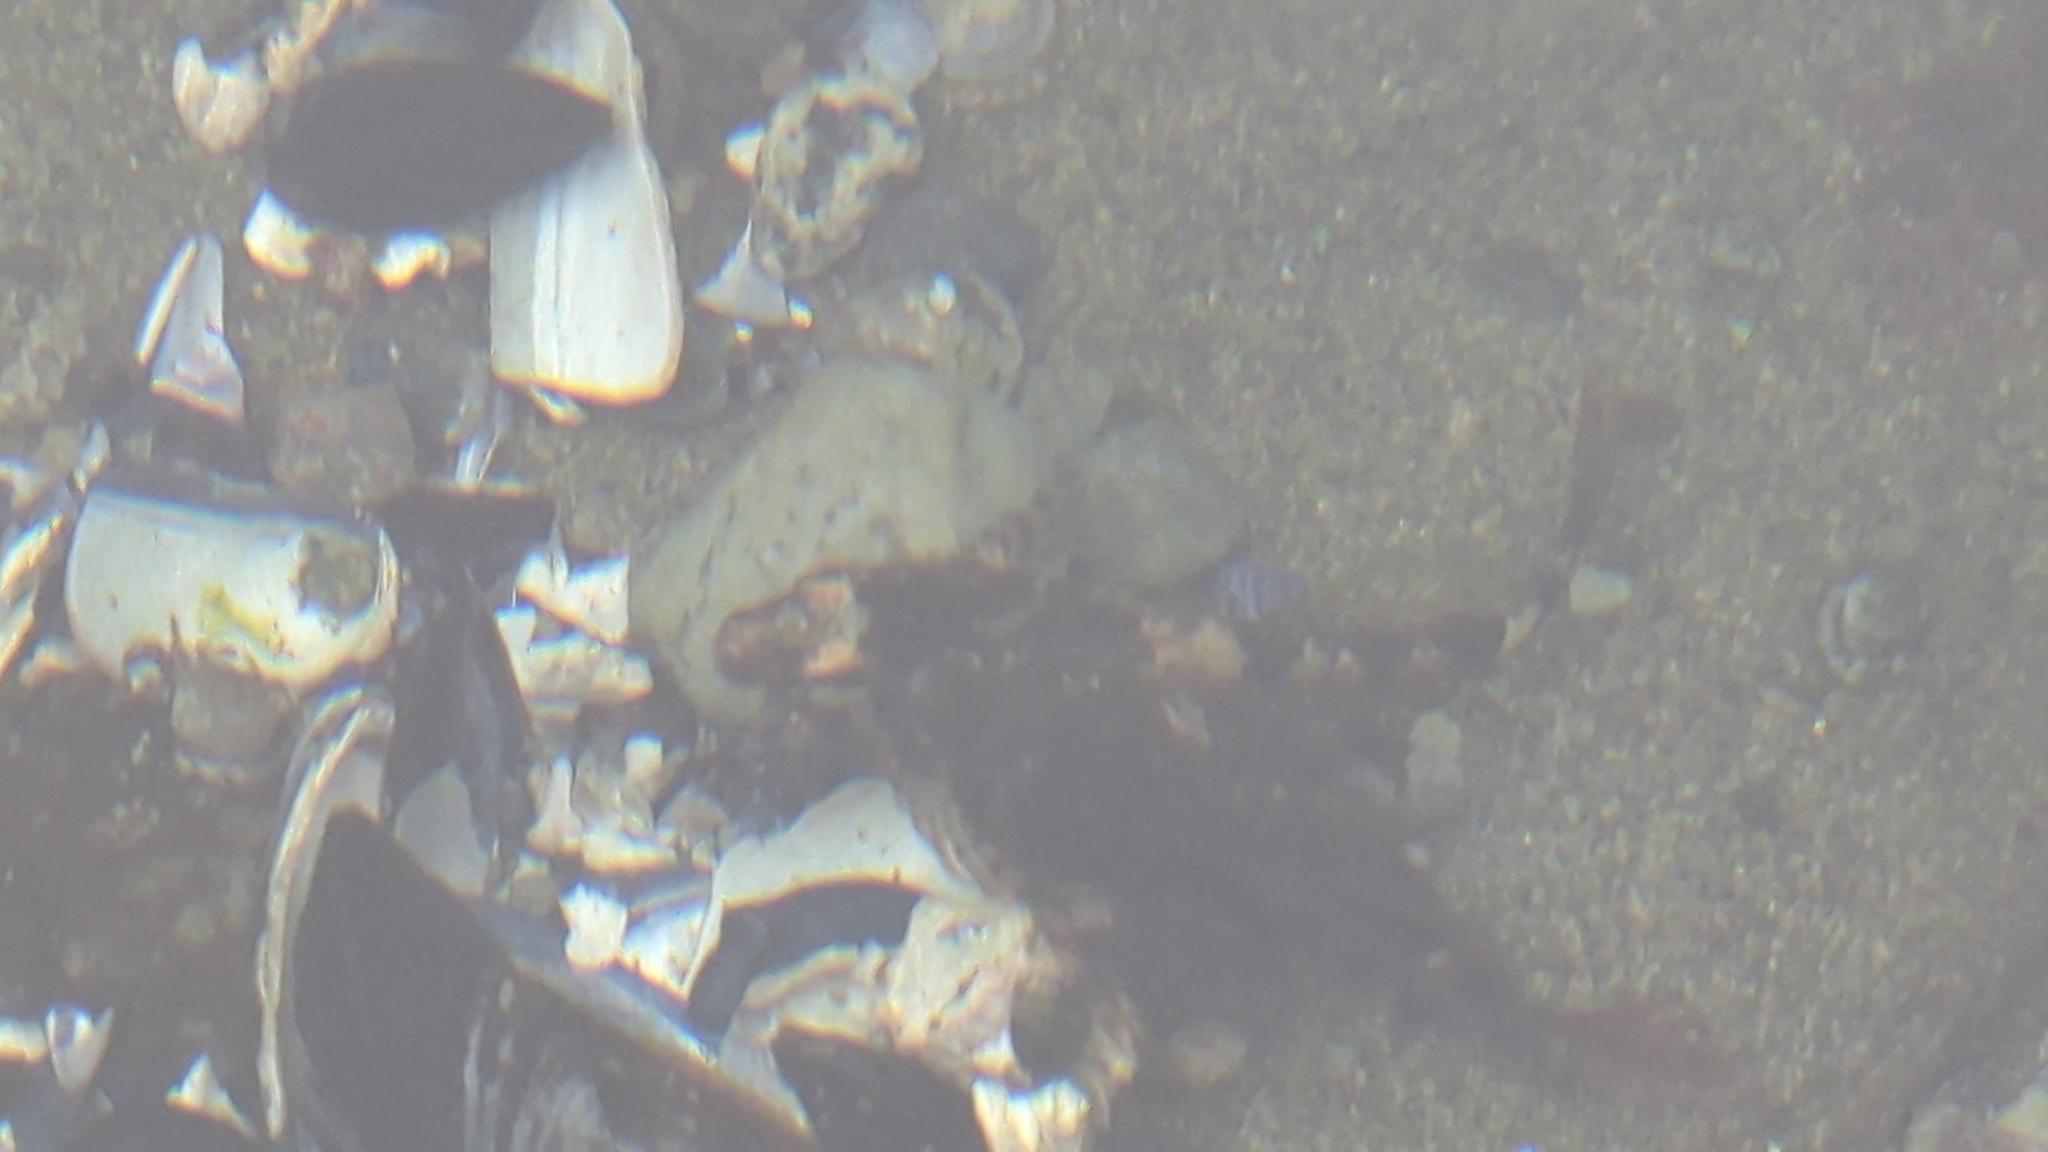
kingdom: Animalia
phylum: Chordata
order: Scorpaeniformes
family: Cottidae
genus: Oligocottus
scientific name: Oligocottus maculosus
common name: Tidepool sculpin
